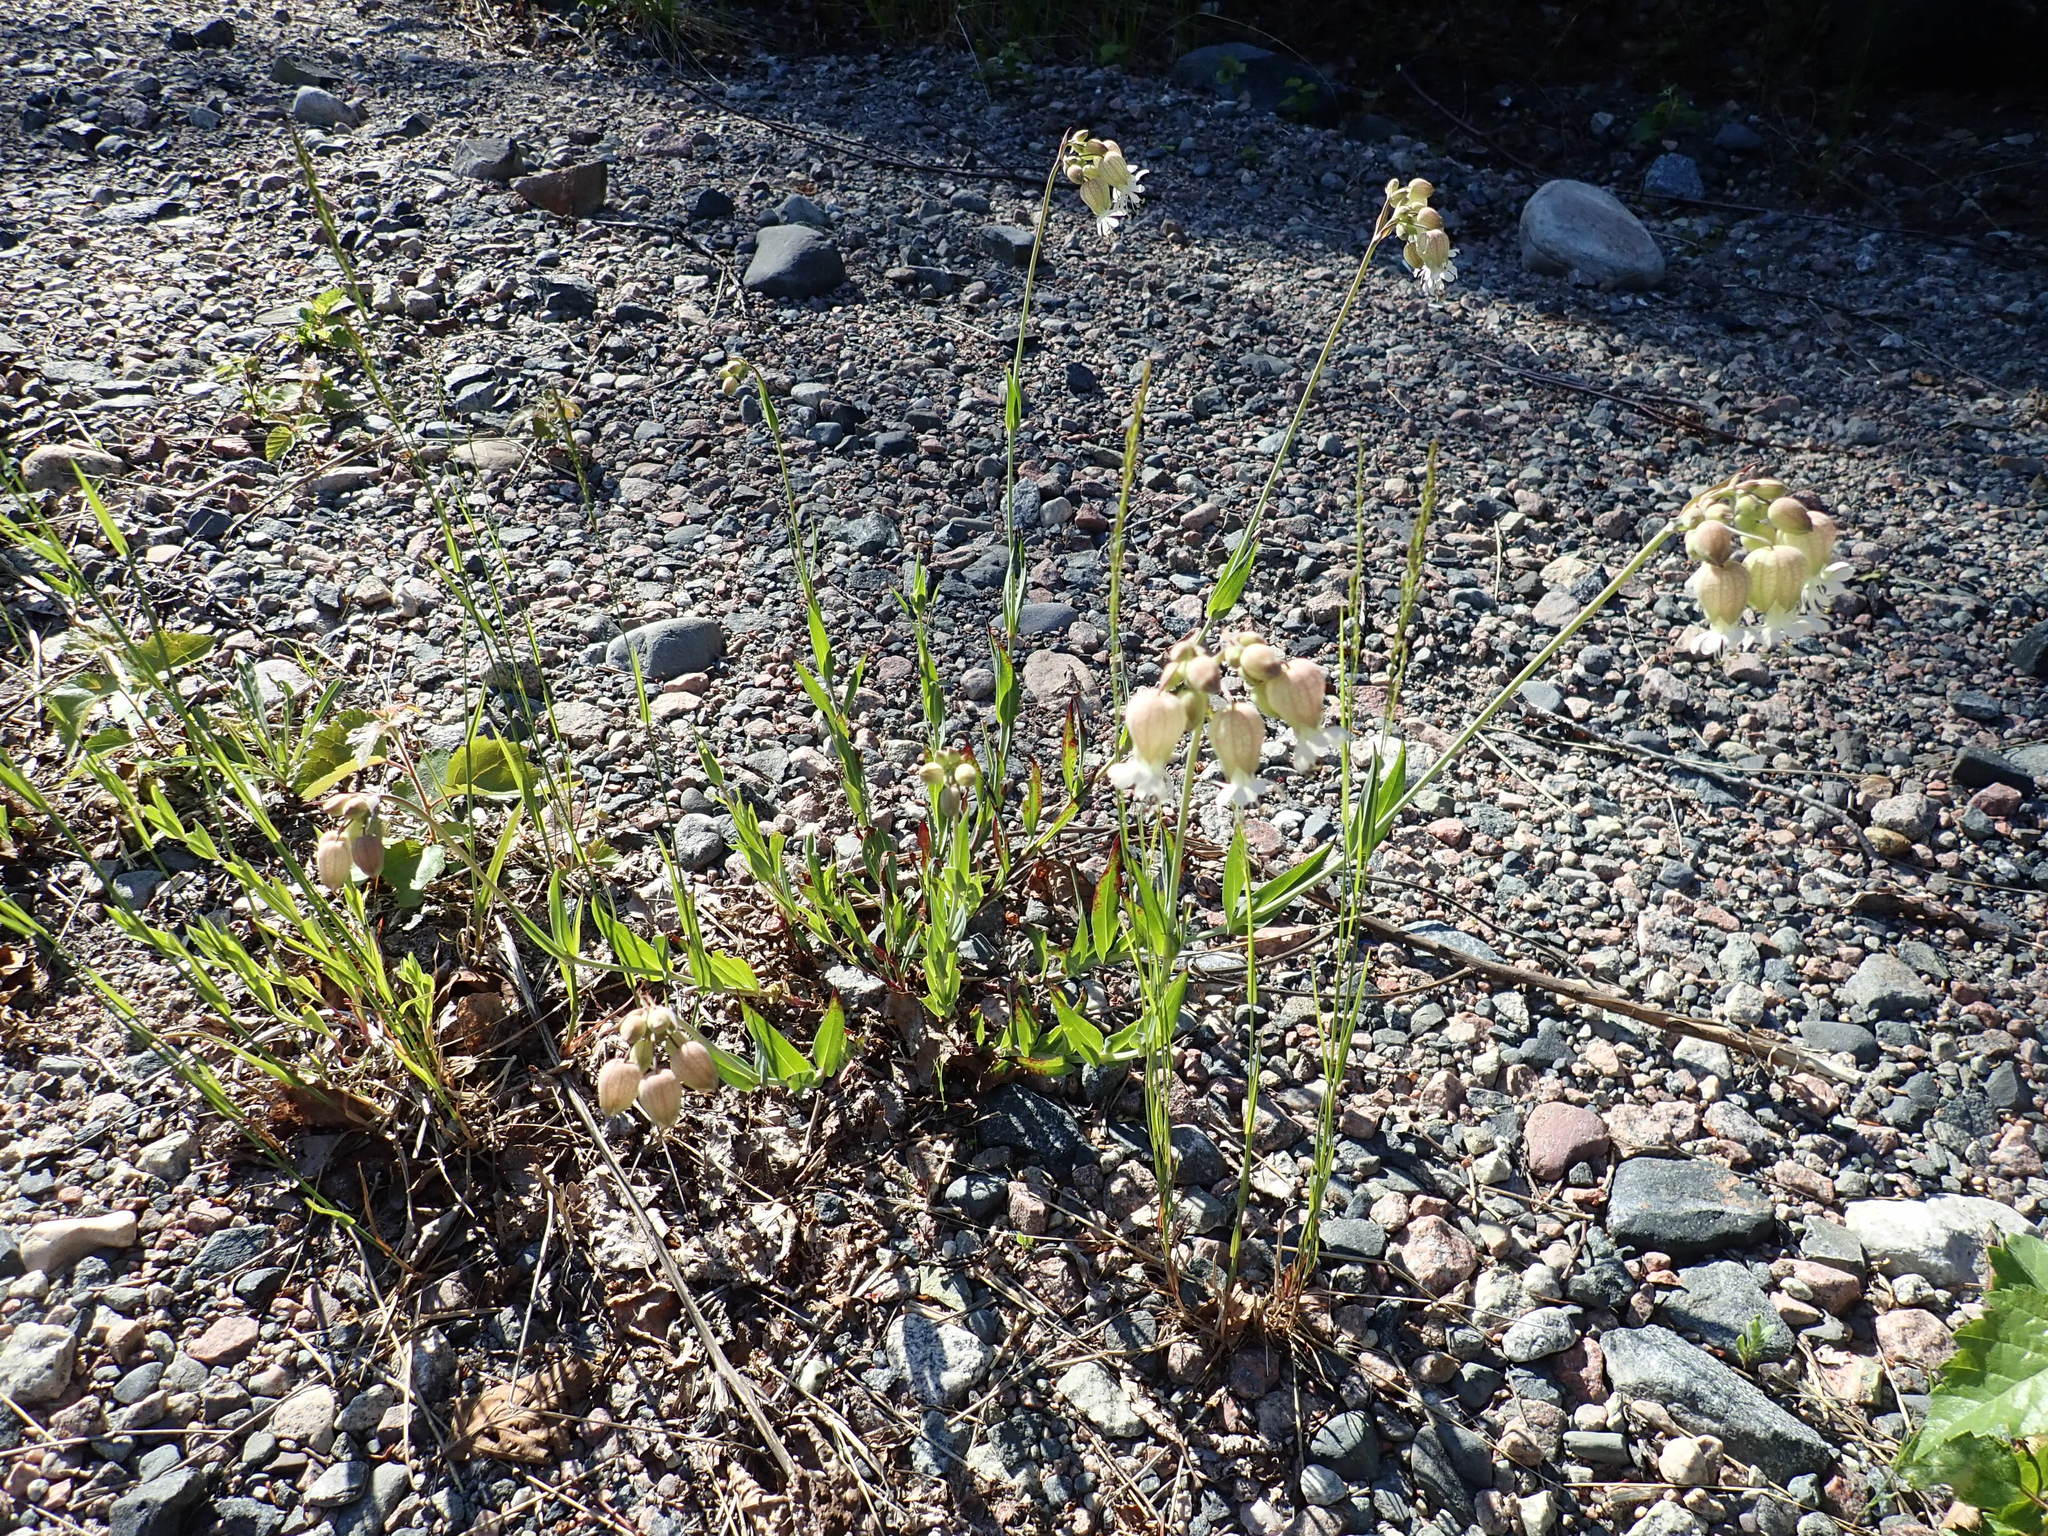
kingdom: Plantae
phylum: Tracheophyta
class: Magnoliopsida
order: Caryophyllales
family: Caryophyllaceae
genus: Silene
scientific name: Silene vulgaris
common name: Bladder campion
